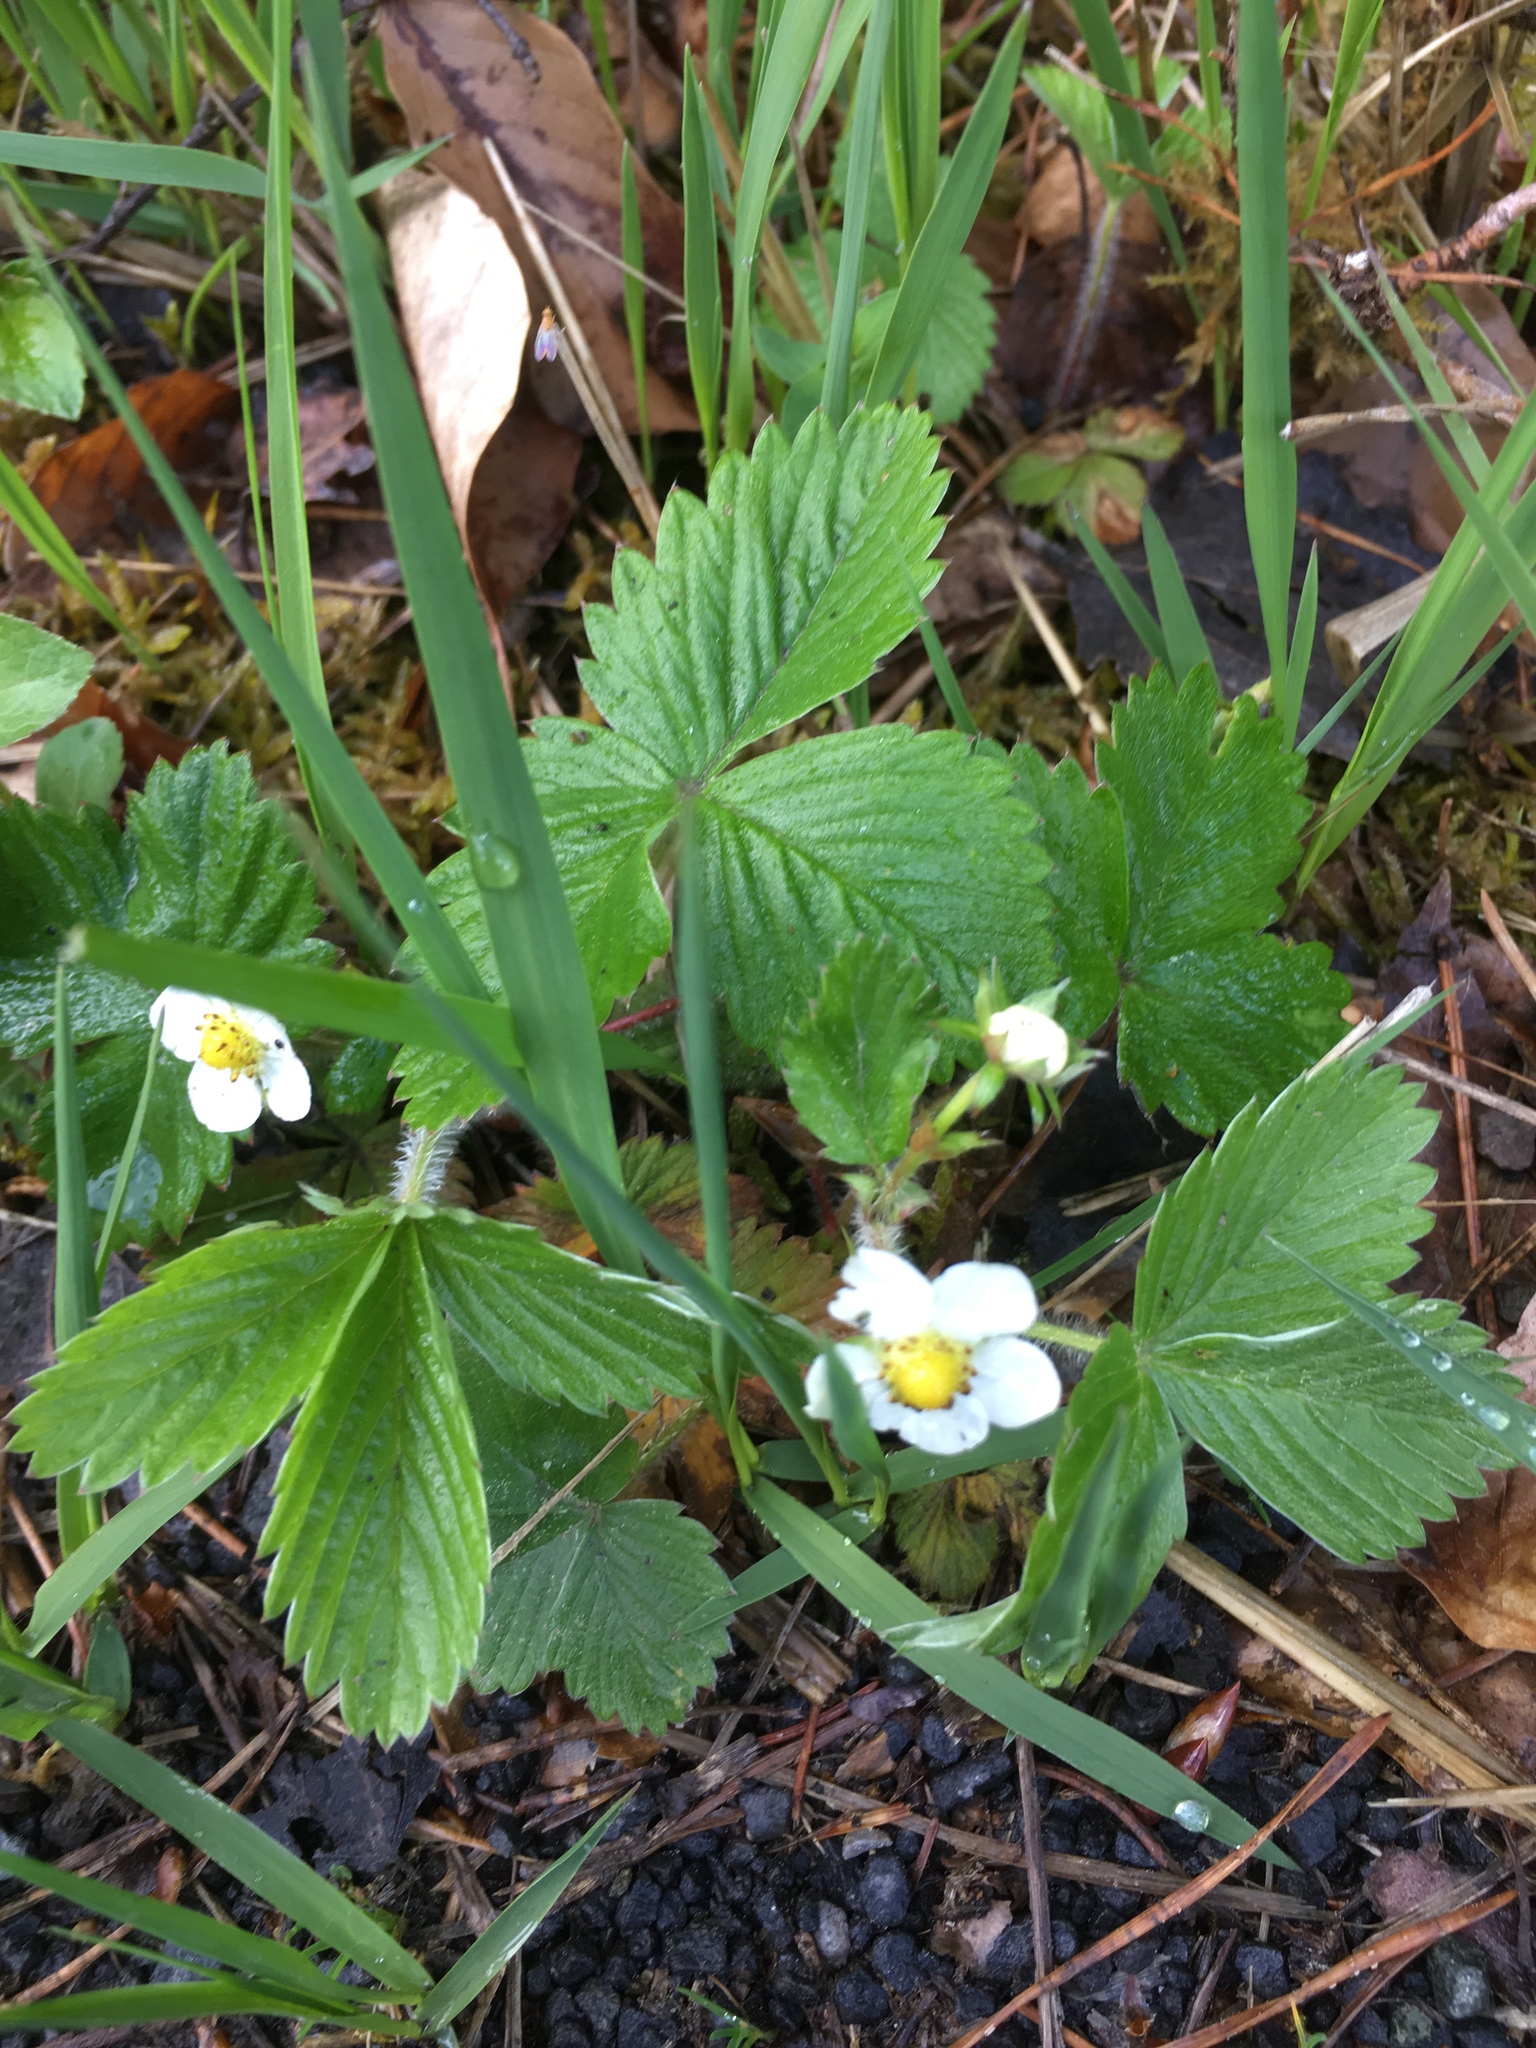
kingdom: Plantae
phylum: Tracheophyta
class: Magnoliopsida
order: Rosales
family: Rosaceae
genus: Fragaria
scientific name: Fragaria vesca
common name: Wild strawberry
